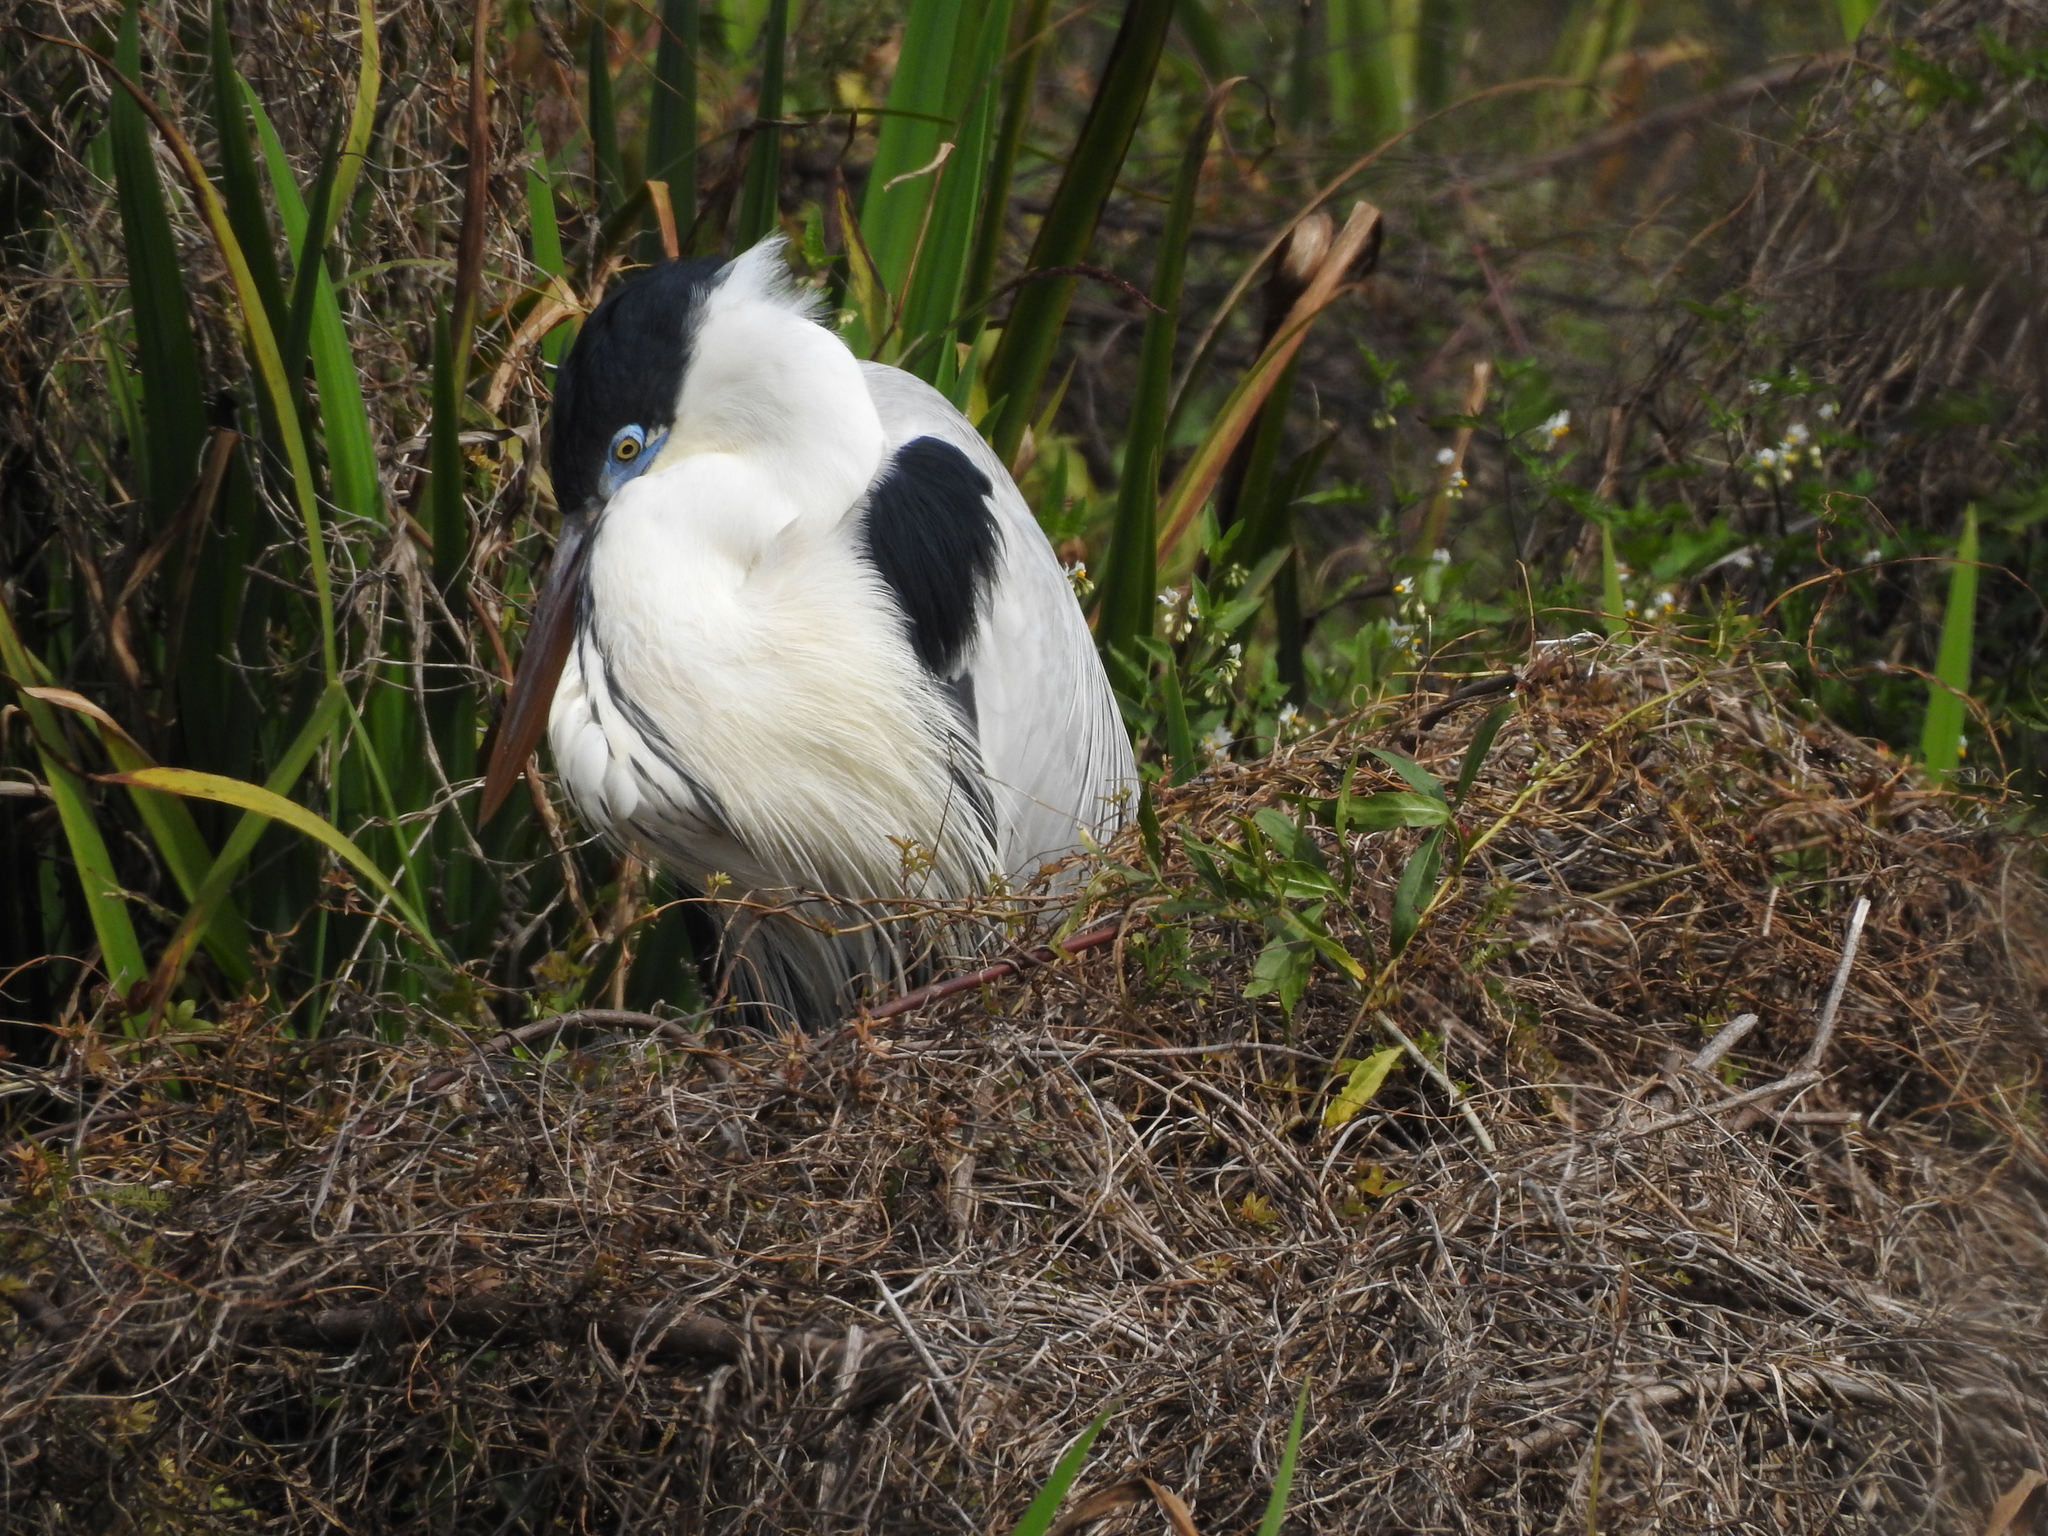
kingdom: Animalia
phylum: Chordata
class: Aves
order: Pelecaniformes
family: Ardeidae
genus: Ardea
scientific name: Ardea cocoi
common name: Cocoi heron
